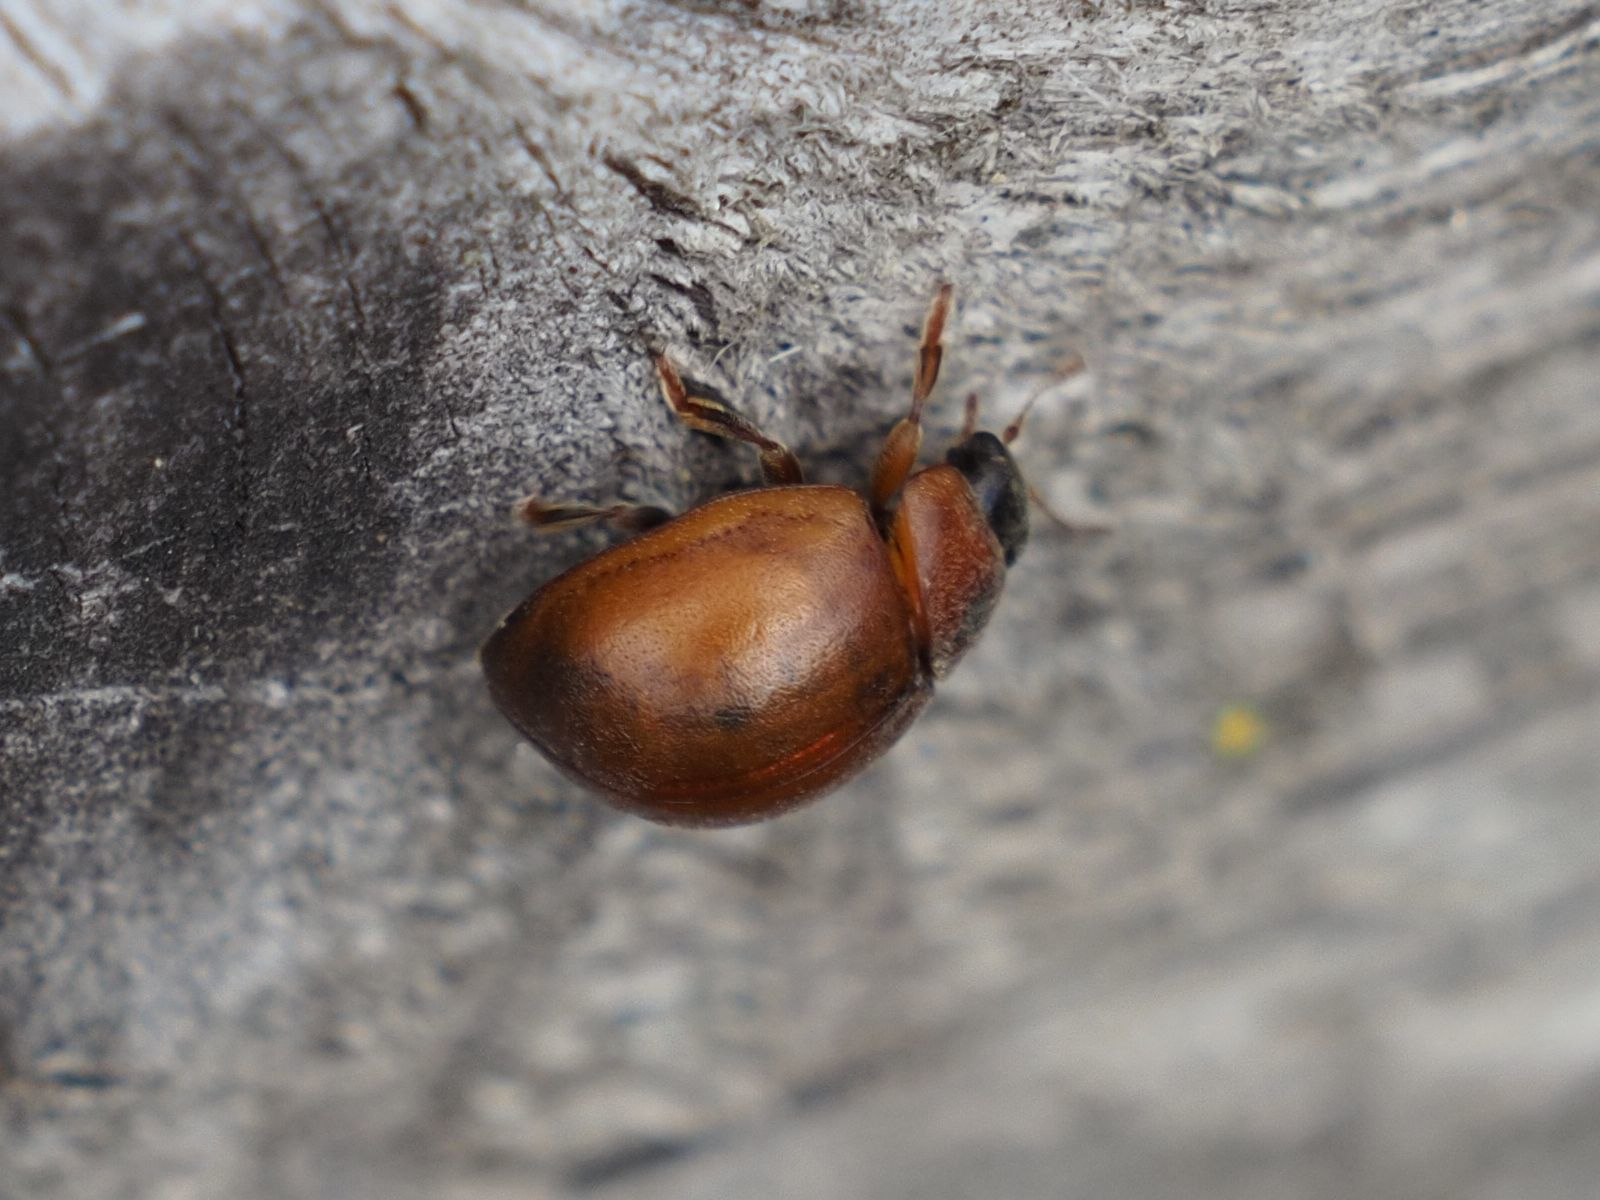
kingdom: Animalia
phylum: Arthropoda
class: Insecta
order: Coleoptera
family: Coccinellidae
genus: Cynegetis
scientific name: Cynegetis impunctata
